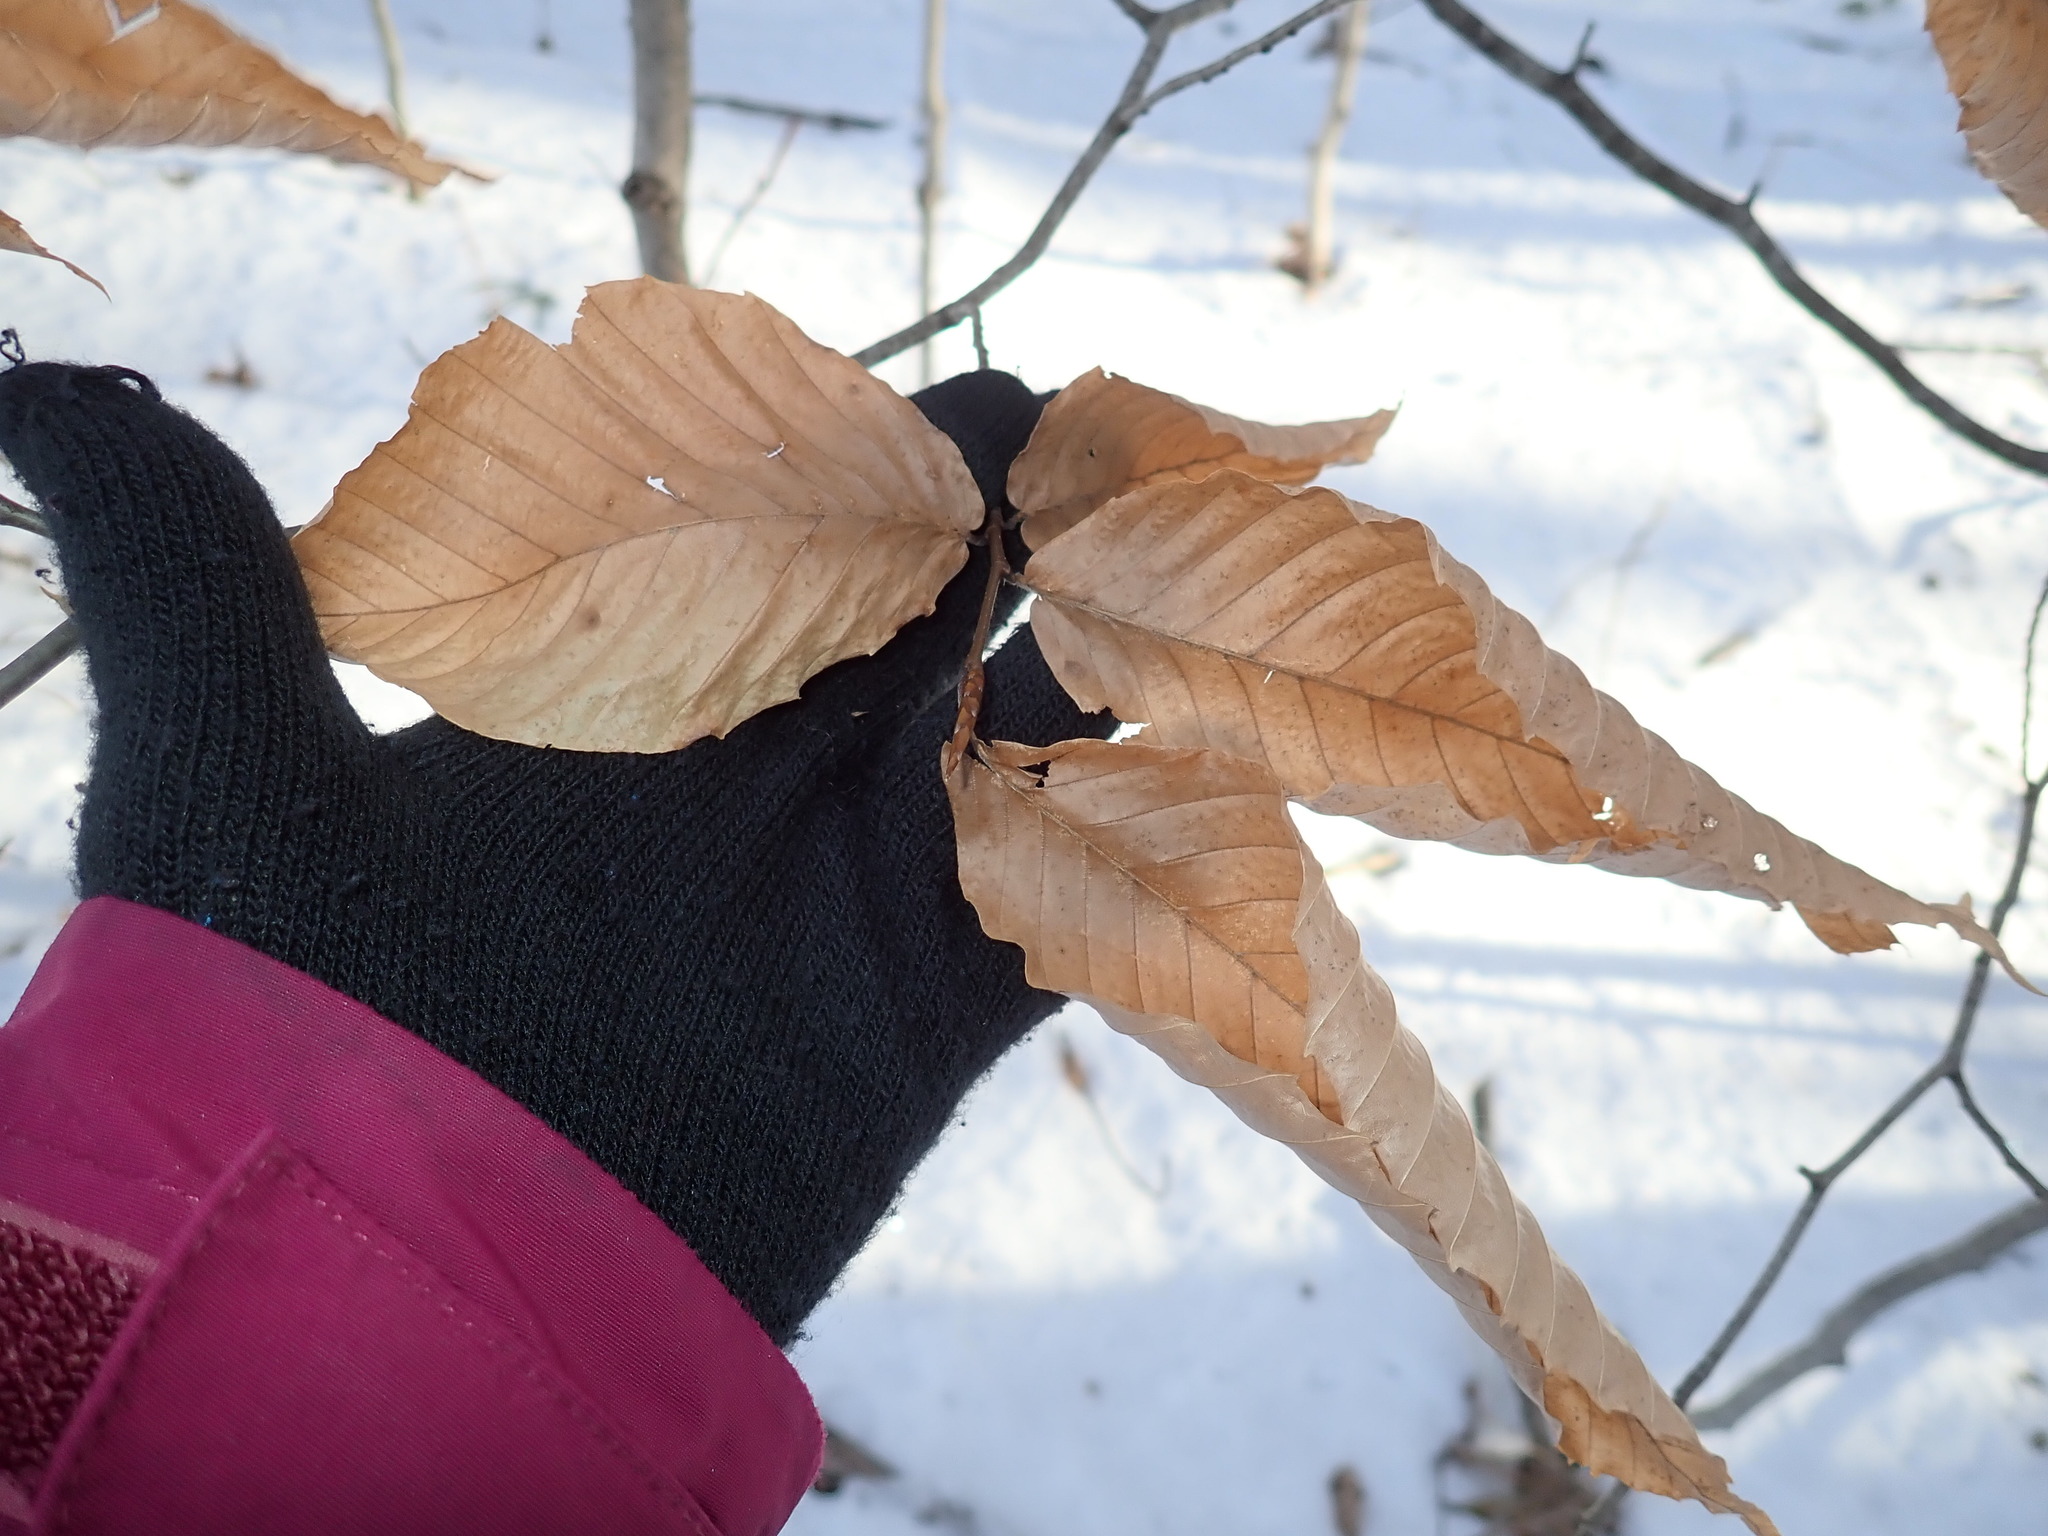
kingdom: Plantae
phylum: Tracheophyta
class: Magnoliopsida
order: Fagales
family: Fagaceae
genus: Fagus
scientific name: Fagus grandifolia
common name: American beech
